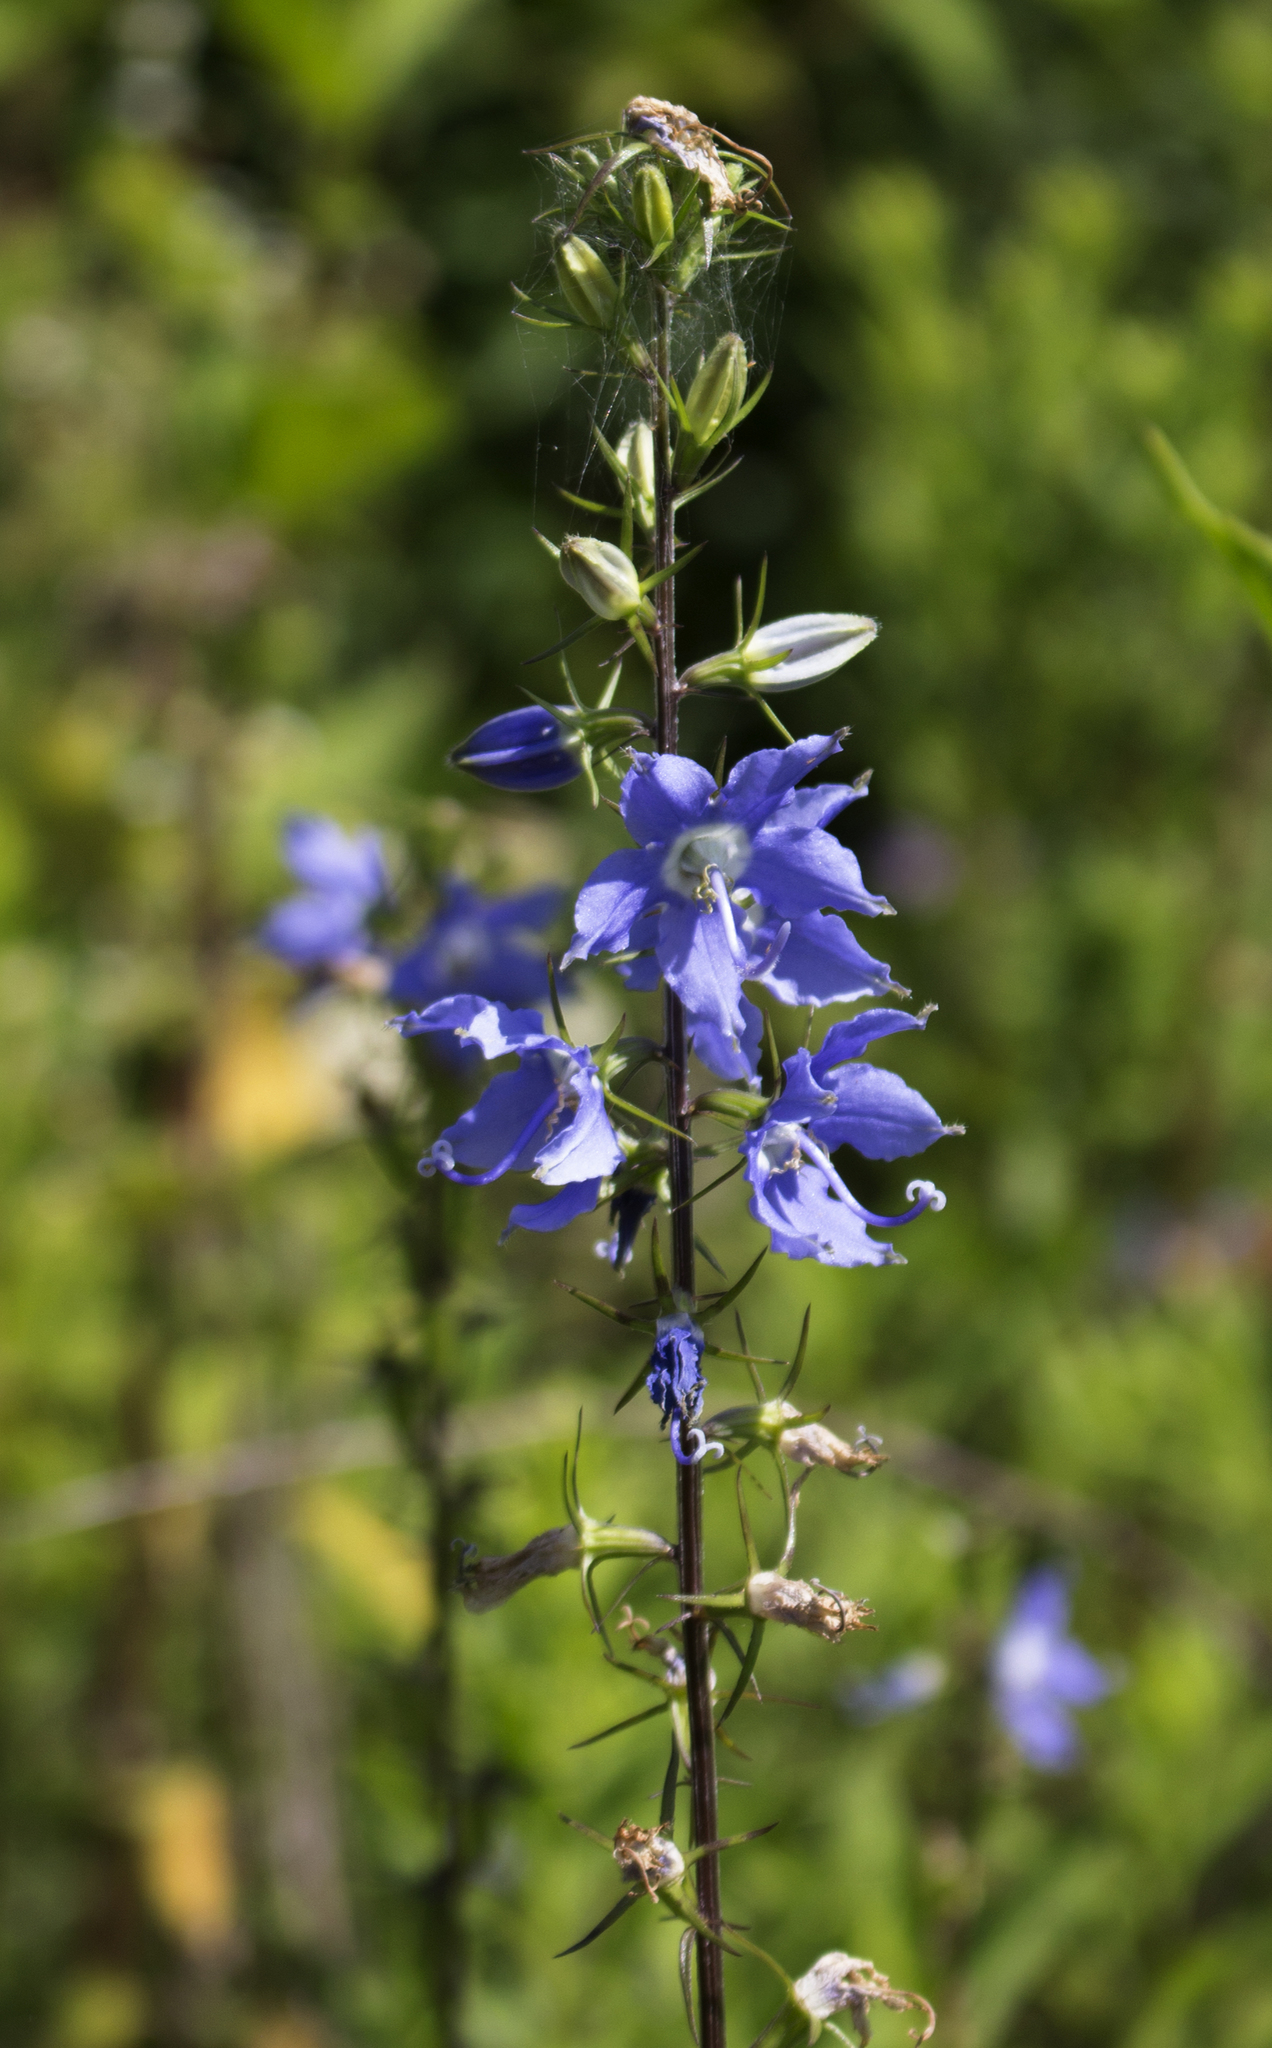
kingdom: Plantae
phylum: Tracheophyta
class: Magnoliopsida
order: Asterales
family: Campanulaceae
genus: Campanulastrum
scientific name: Campanulastrum americanum
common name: American bellflower
